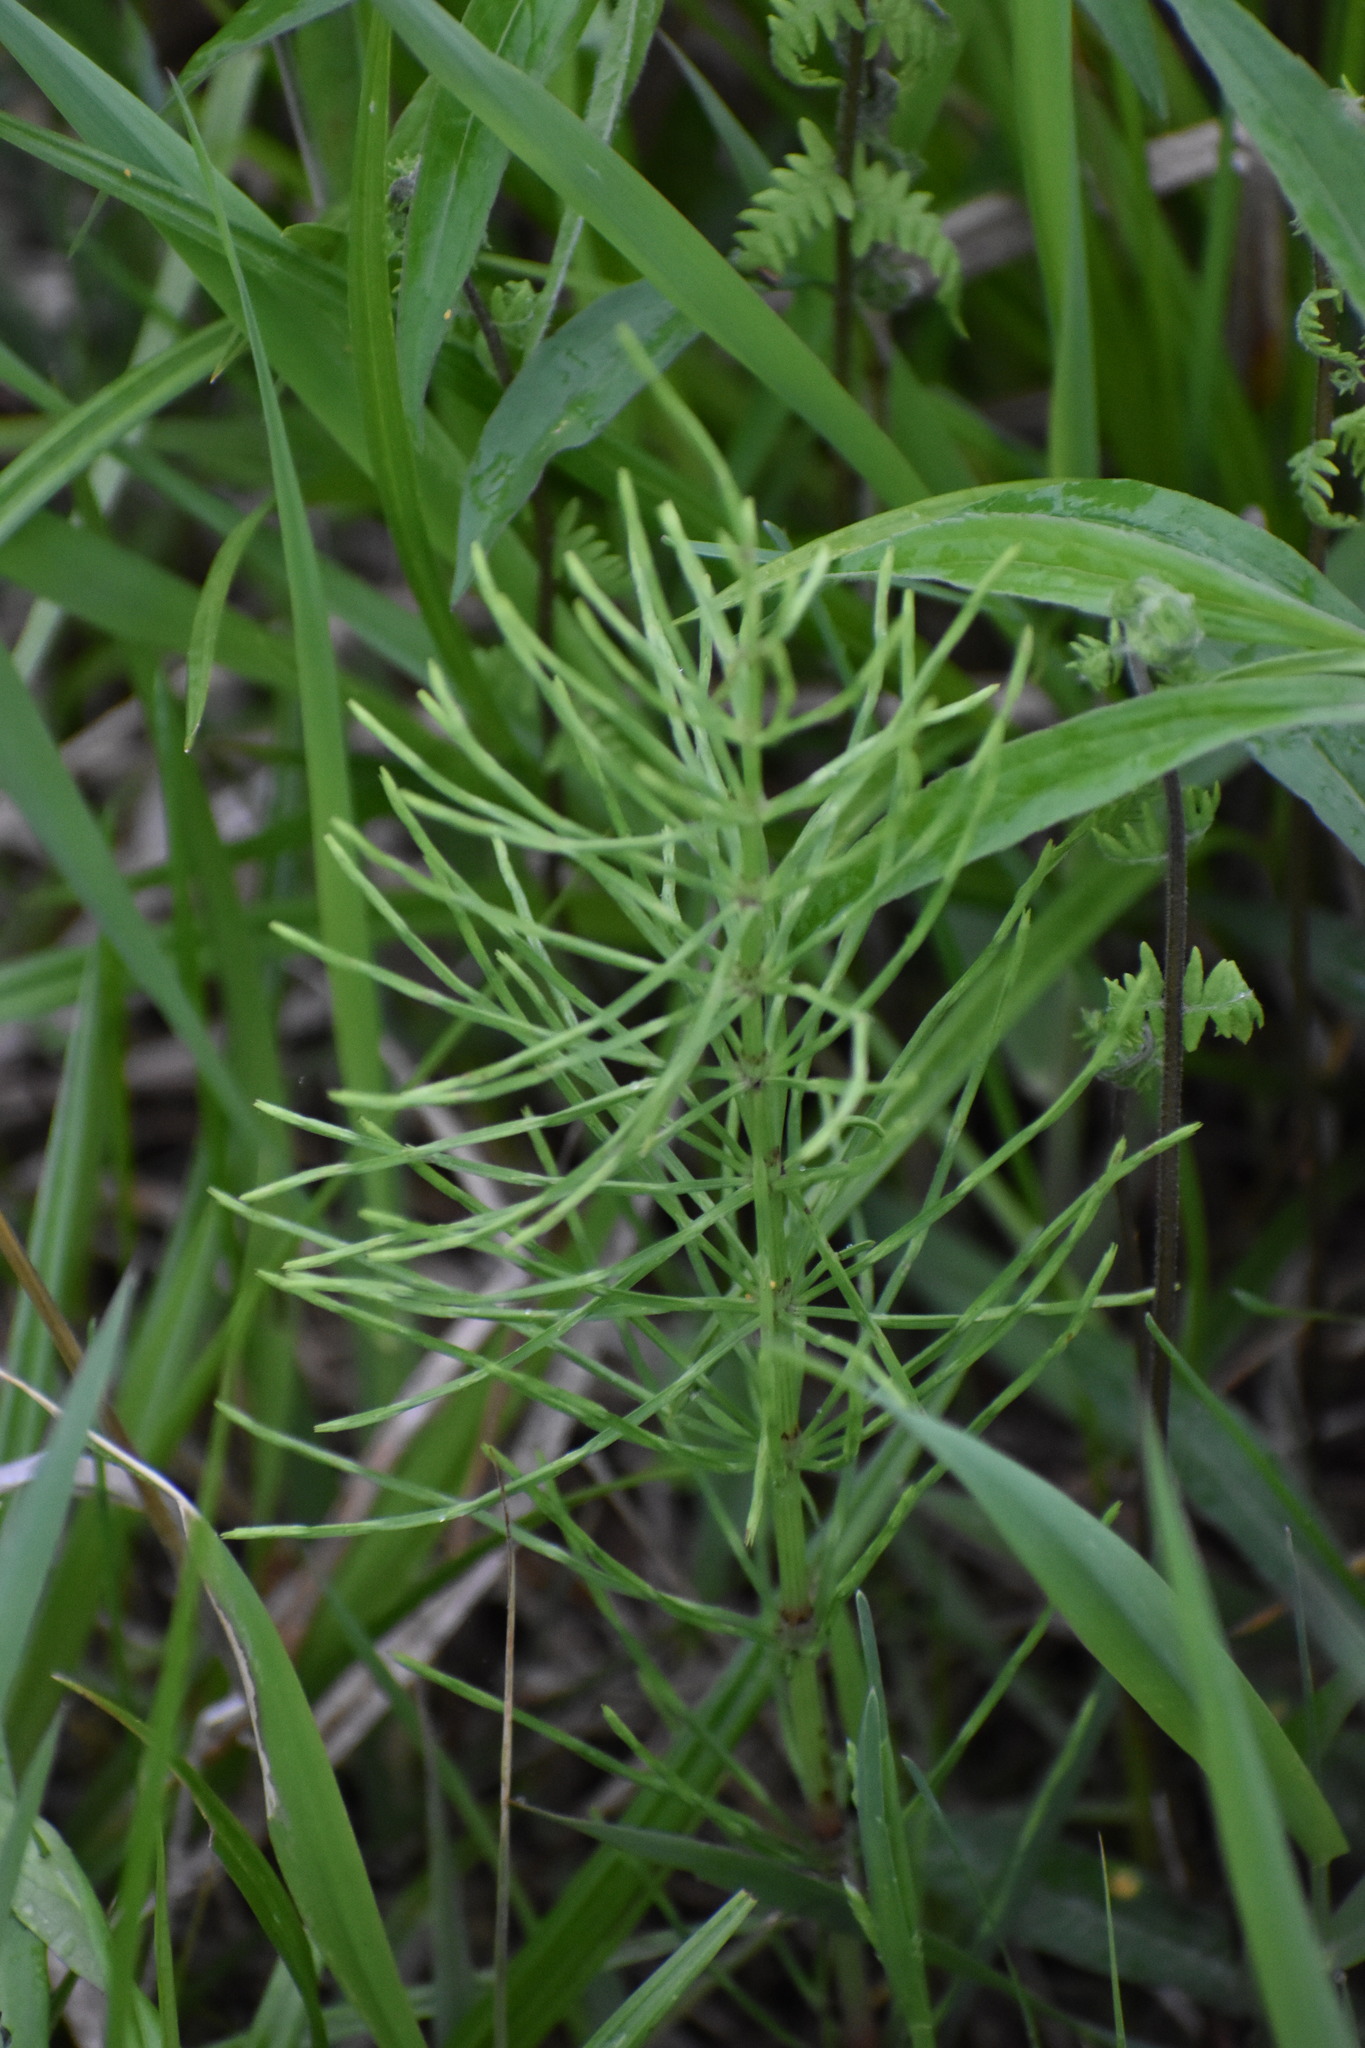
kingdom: Plantae
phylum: Tracheophyta
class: Polypodiopsida
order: Equisetales
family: Equisetaceae
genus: Equisetum
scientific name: Equisetum arvense
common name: Field horsetail
